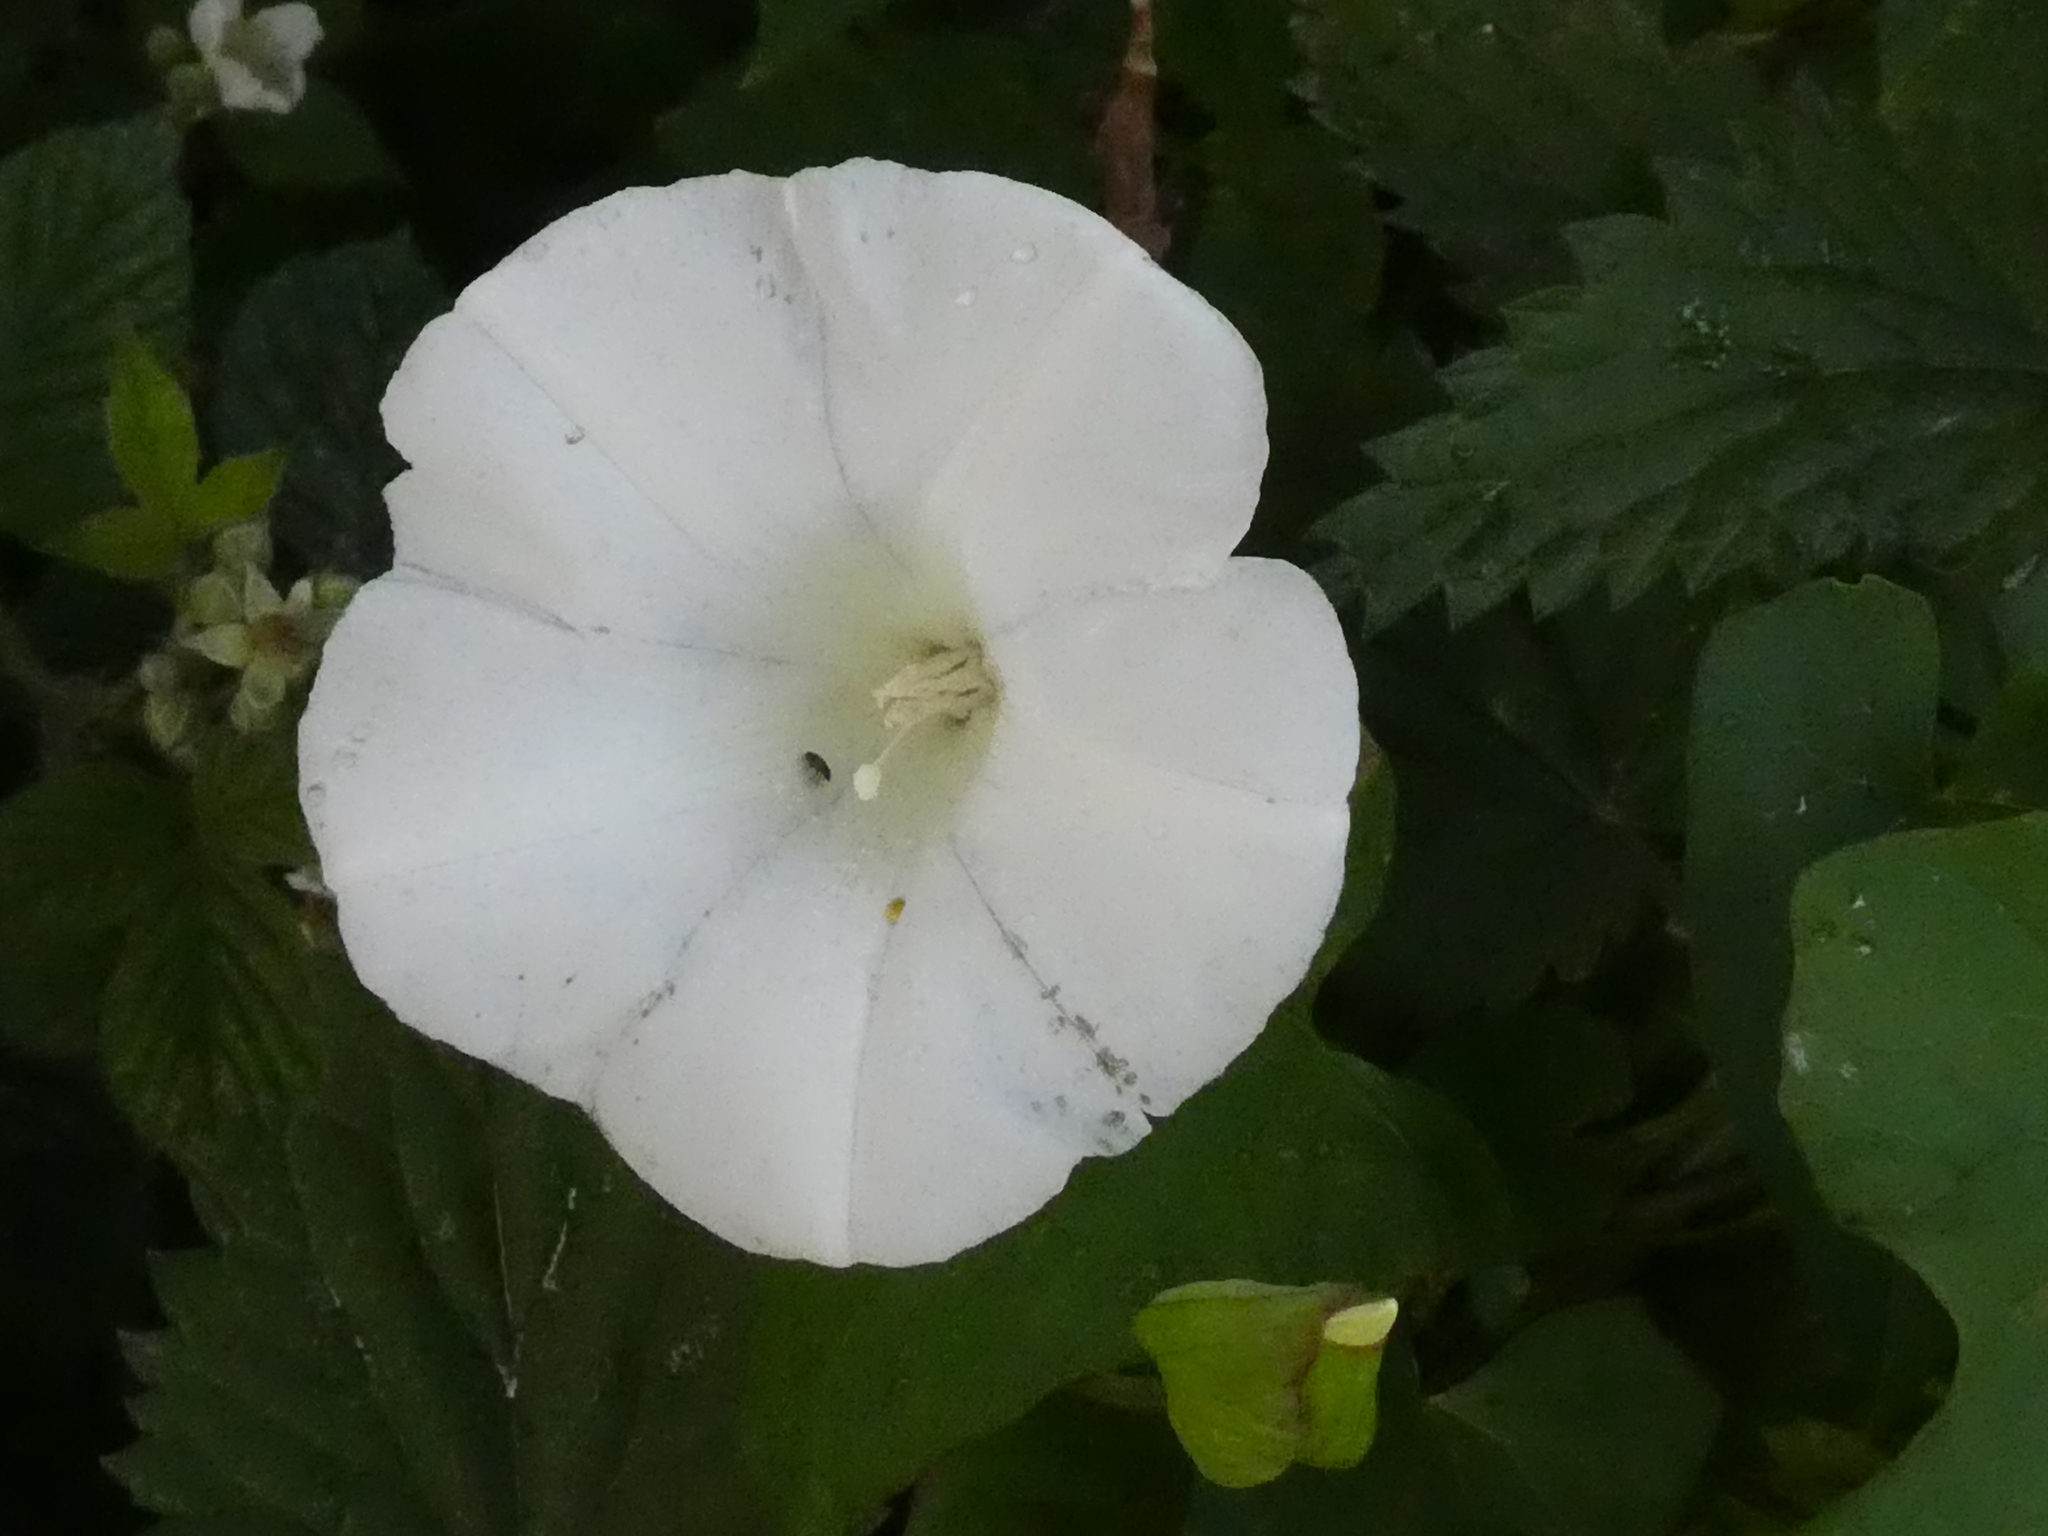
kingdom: Plantae
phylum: Tracheophyta
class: Magnoliopsida
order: Solanales
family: Convolvulaceae
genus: Calystegia
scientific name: Calystegia silvatica
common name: Large bindweed
